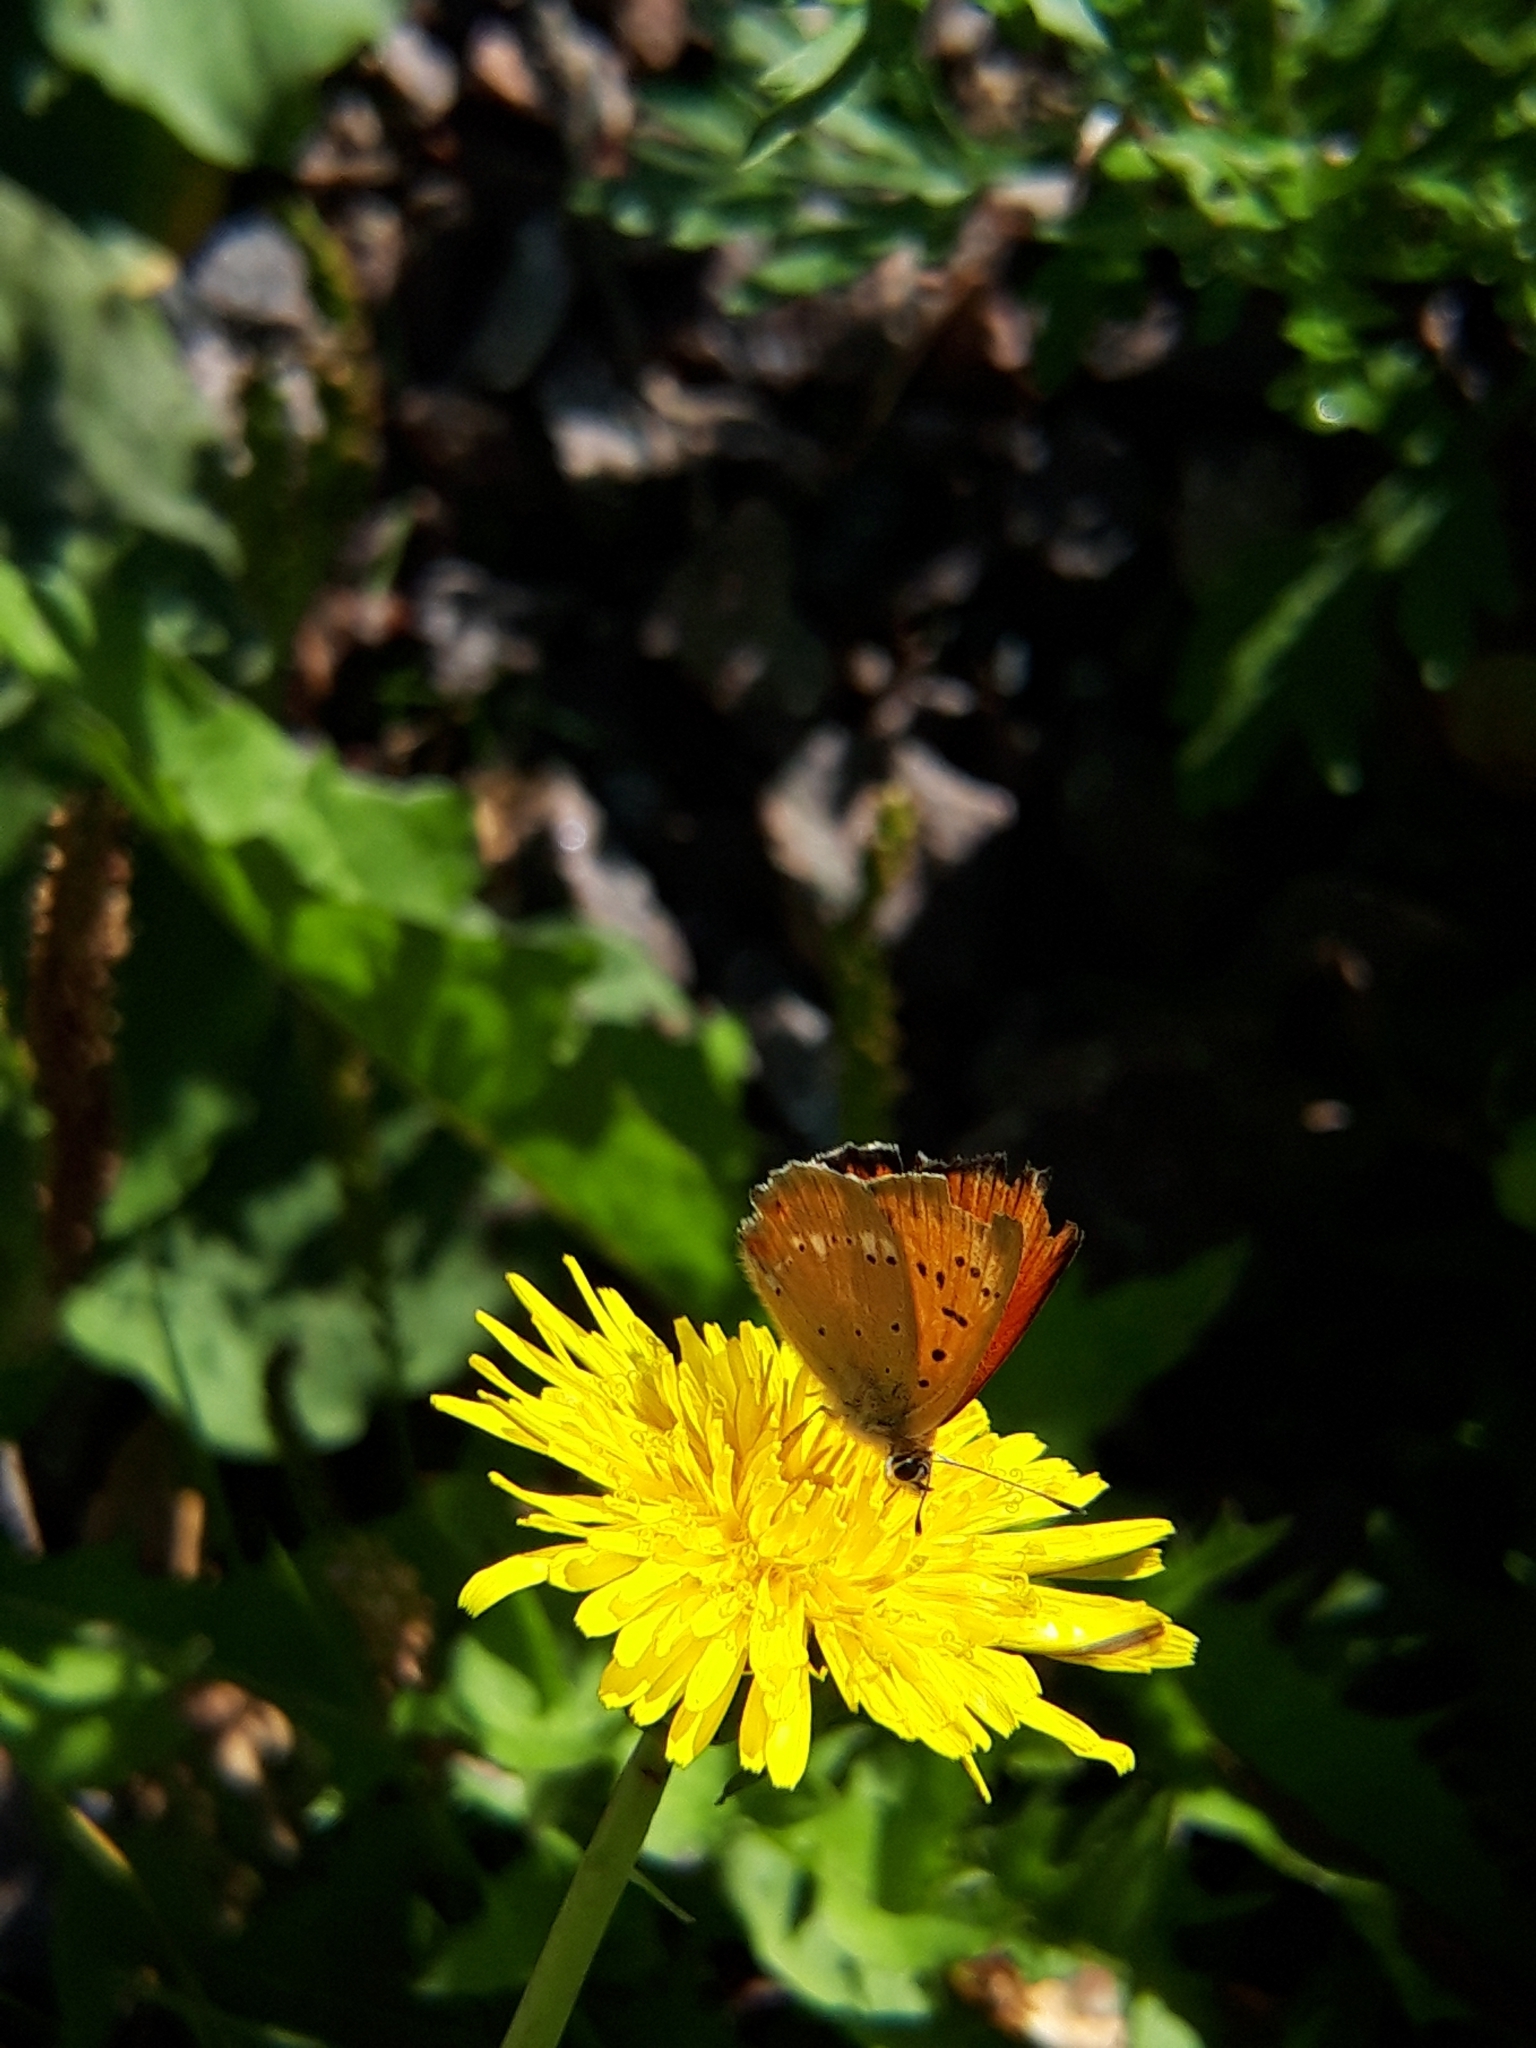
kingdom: Animalia
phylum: Arthropoda
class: Insecta
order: Lepidoptera
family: Lycaenidae
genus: Lycaena
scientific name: Lycaena virgaureae
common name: Scarce copper
